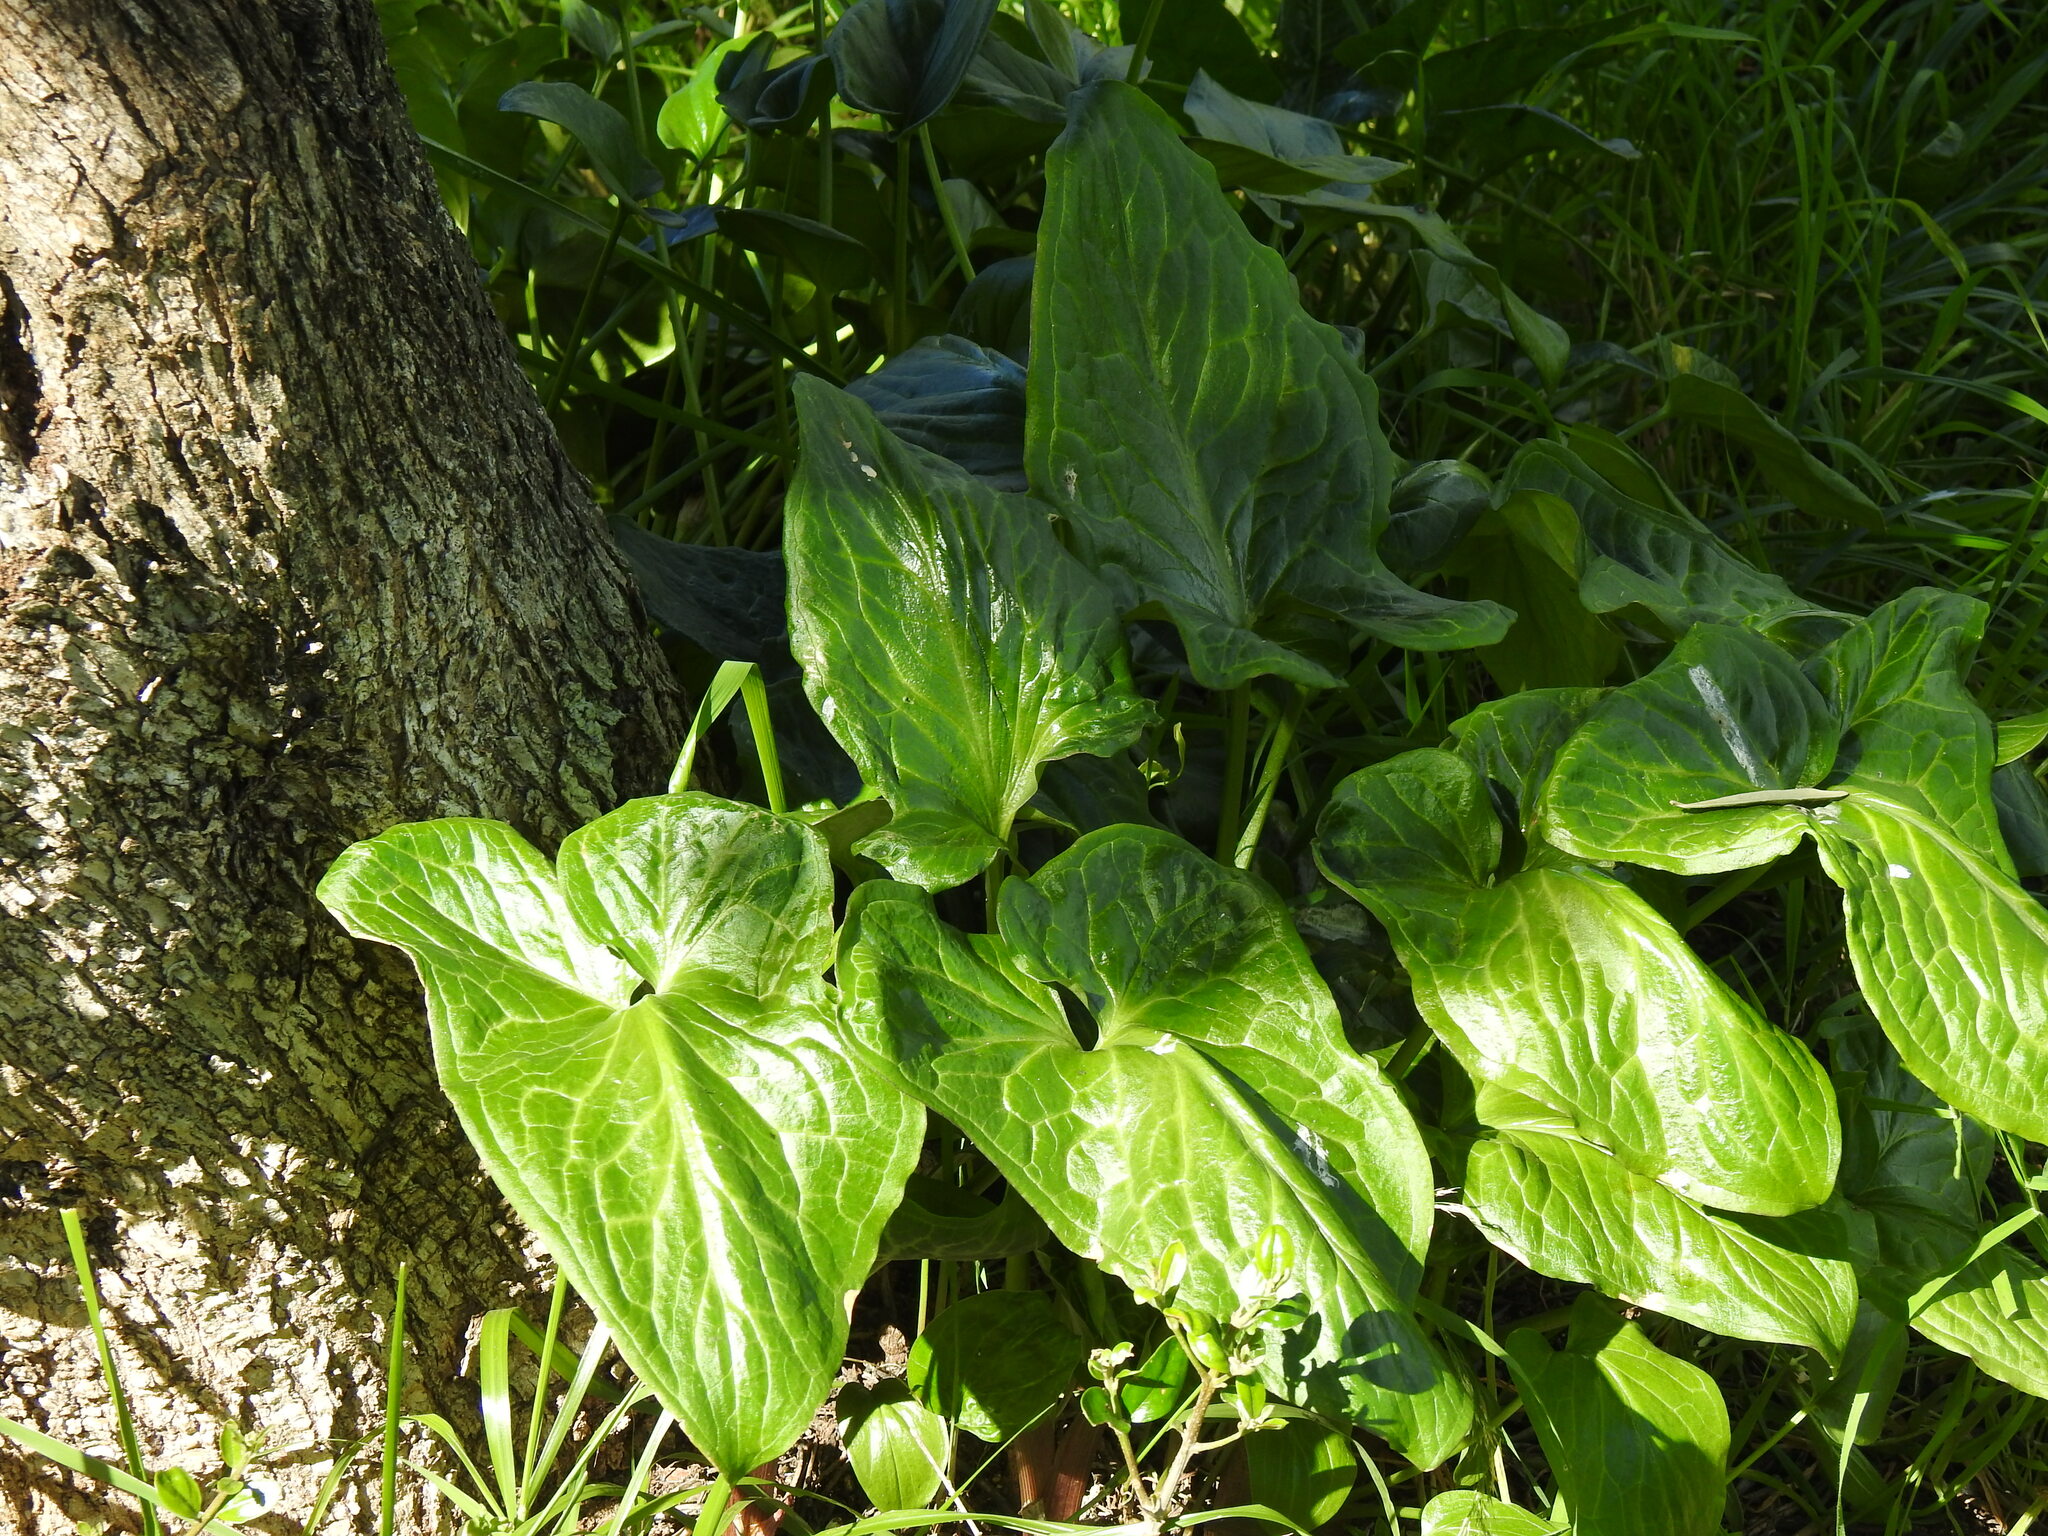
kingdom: Plantae
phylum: Tracheophyta
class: Liliopsida
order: Alismatales
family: Araceae
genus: Arum
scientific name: Arum italicum
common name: Italian lords-and-ladies
